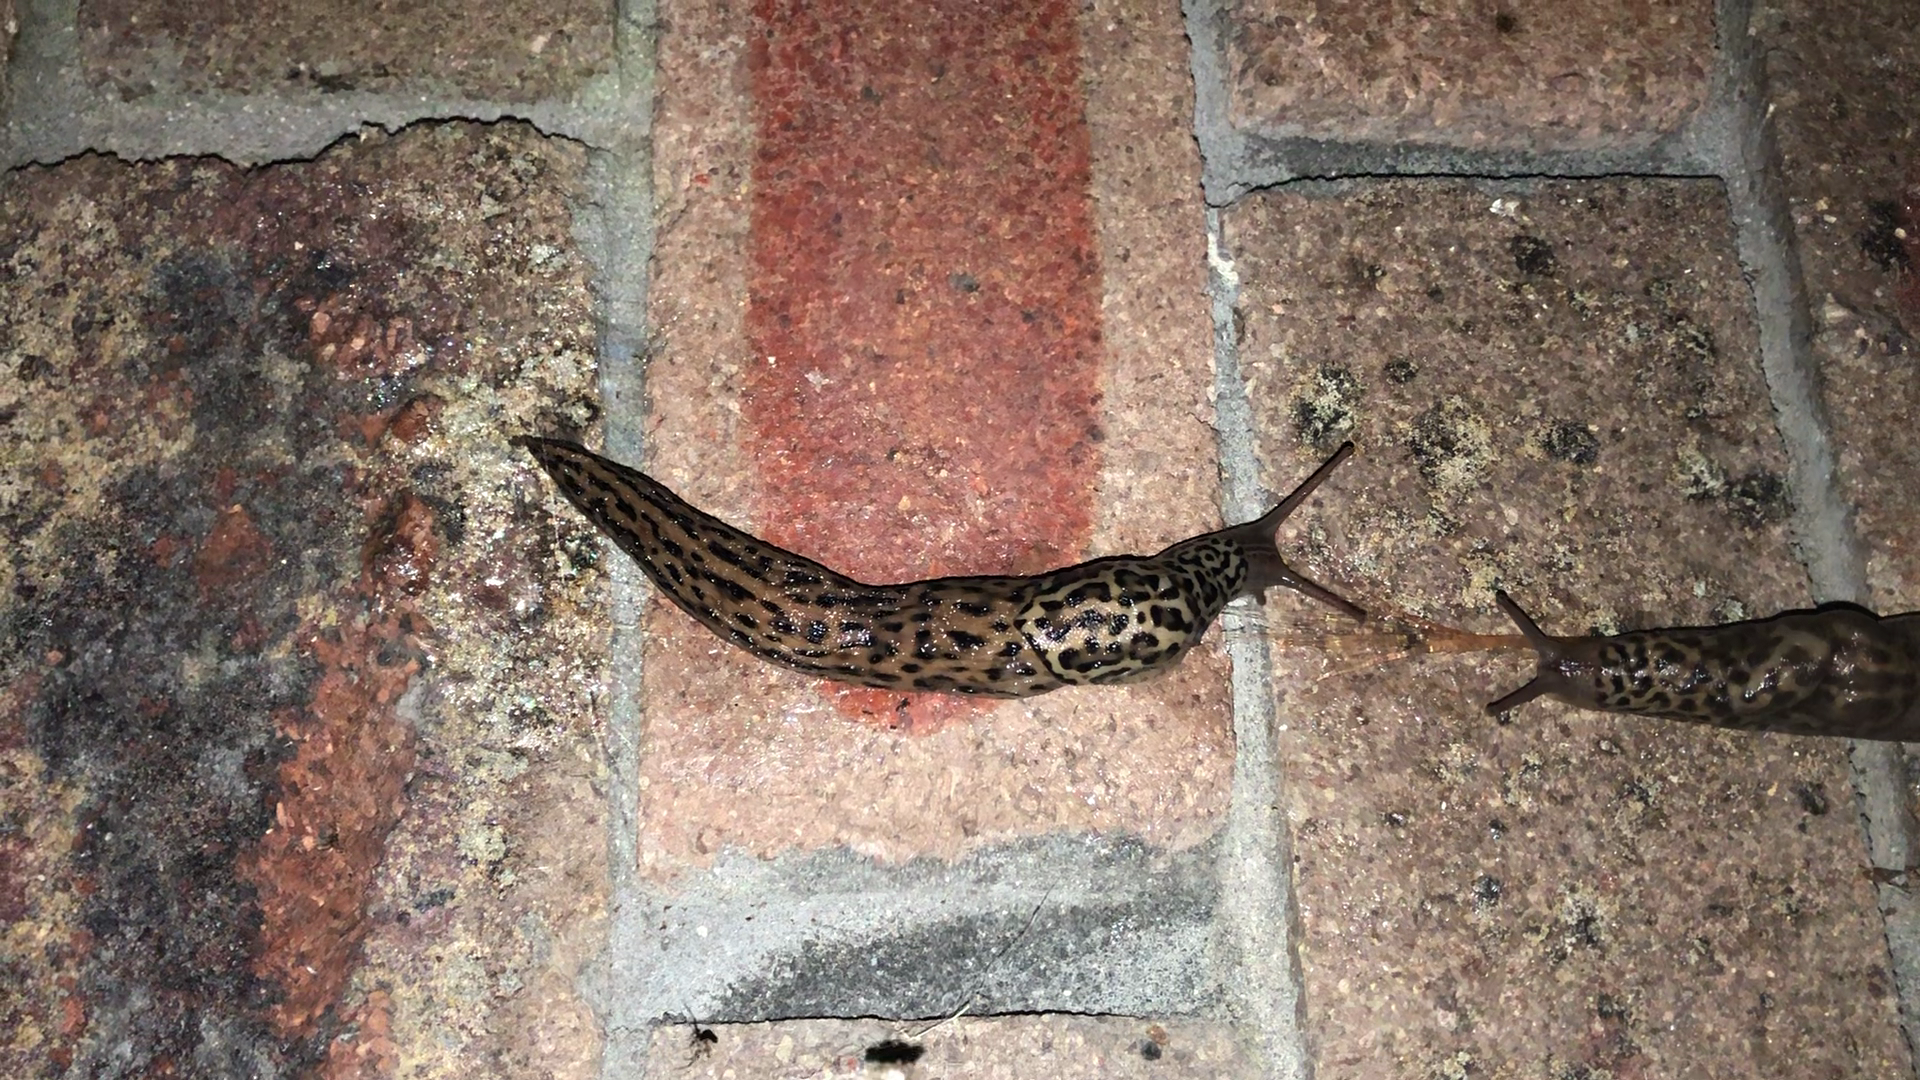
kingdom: Animalia
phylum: Mollusca
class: Gastropoda
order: Stylommatophora
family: Limacidae
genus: Limax
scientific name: Limax maximus
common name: Great grey slug
